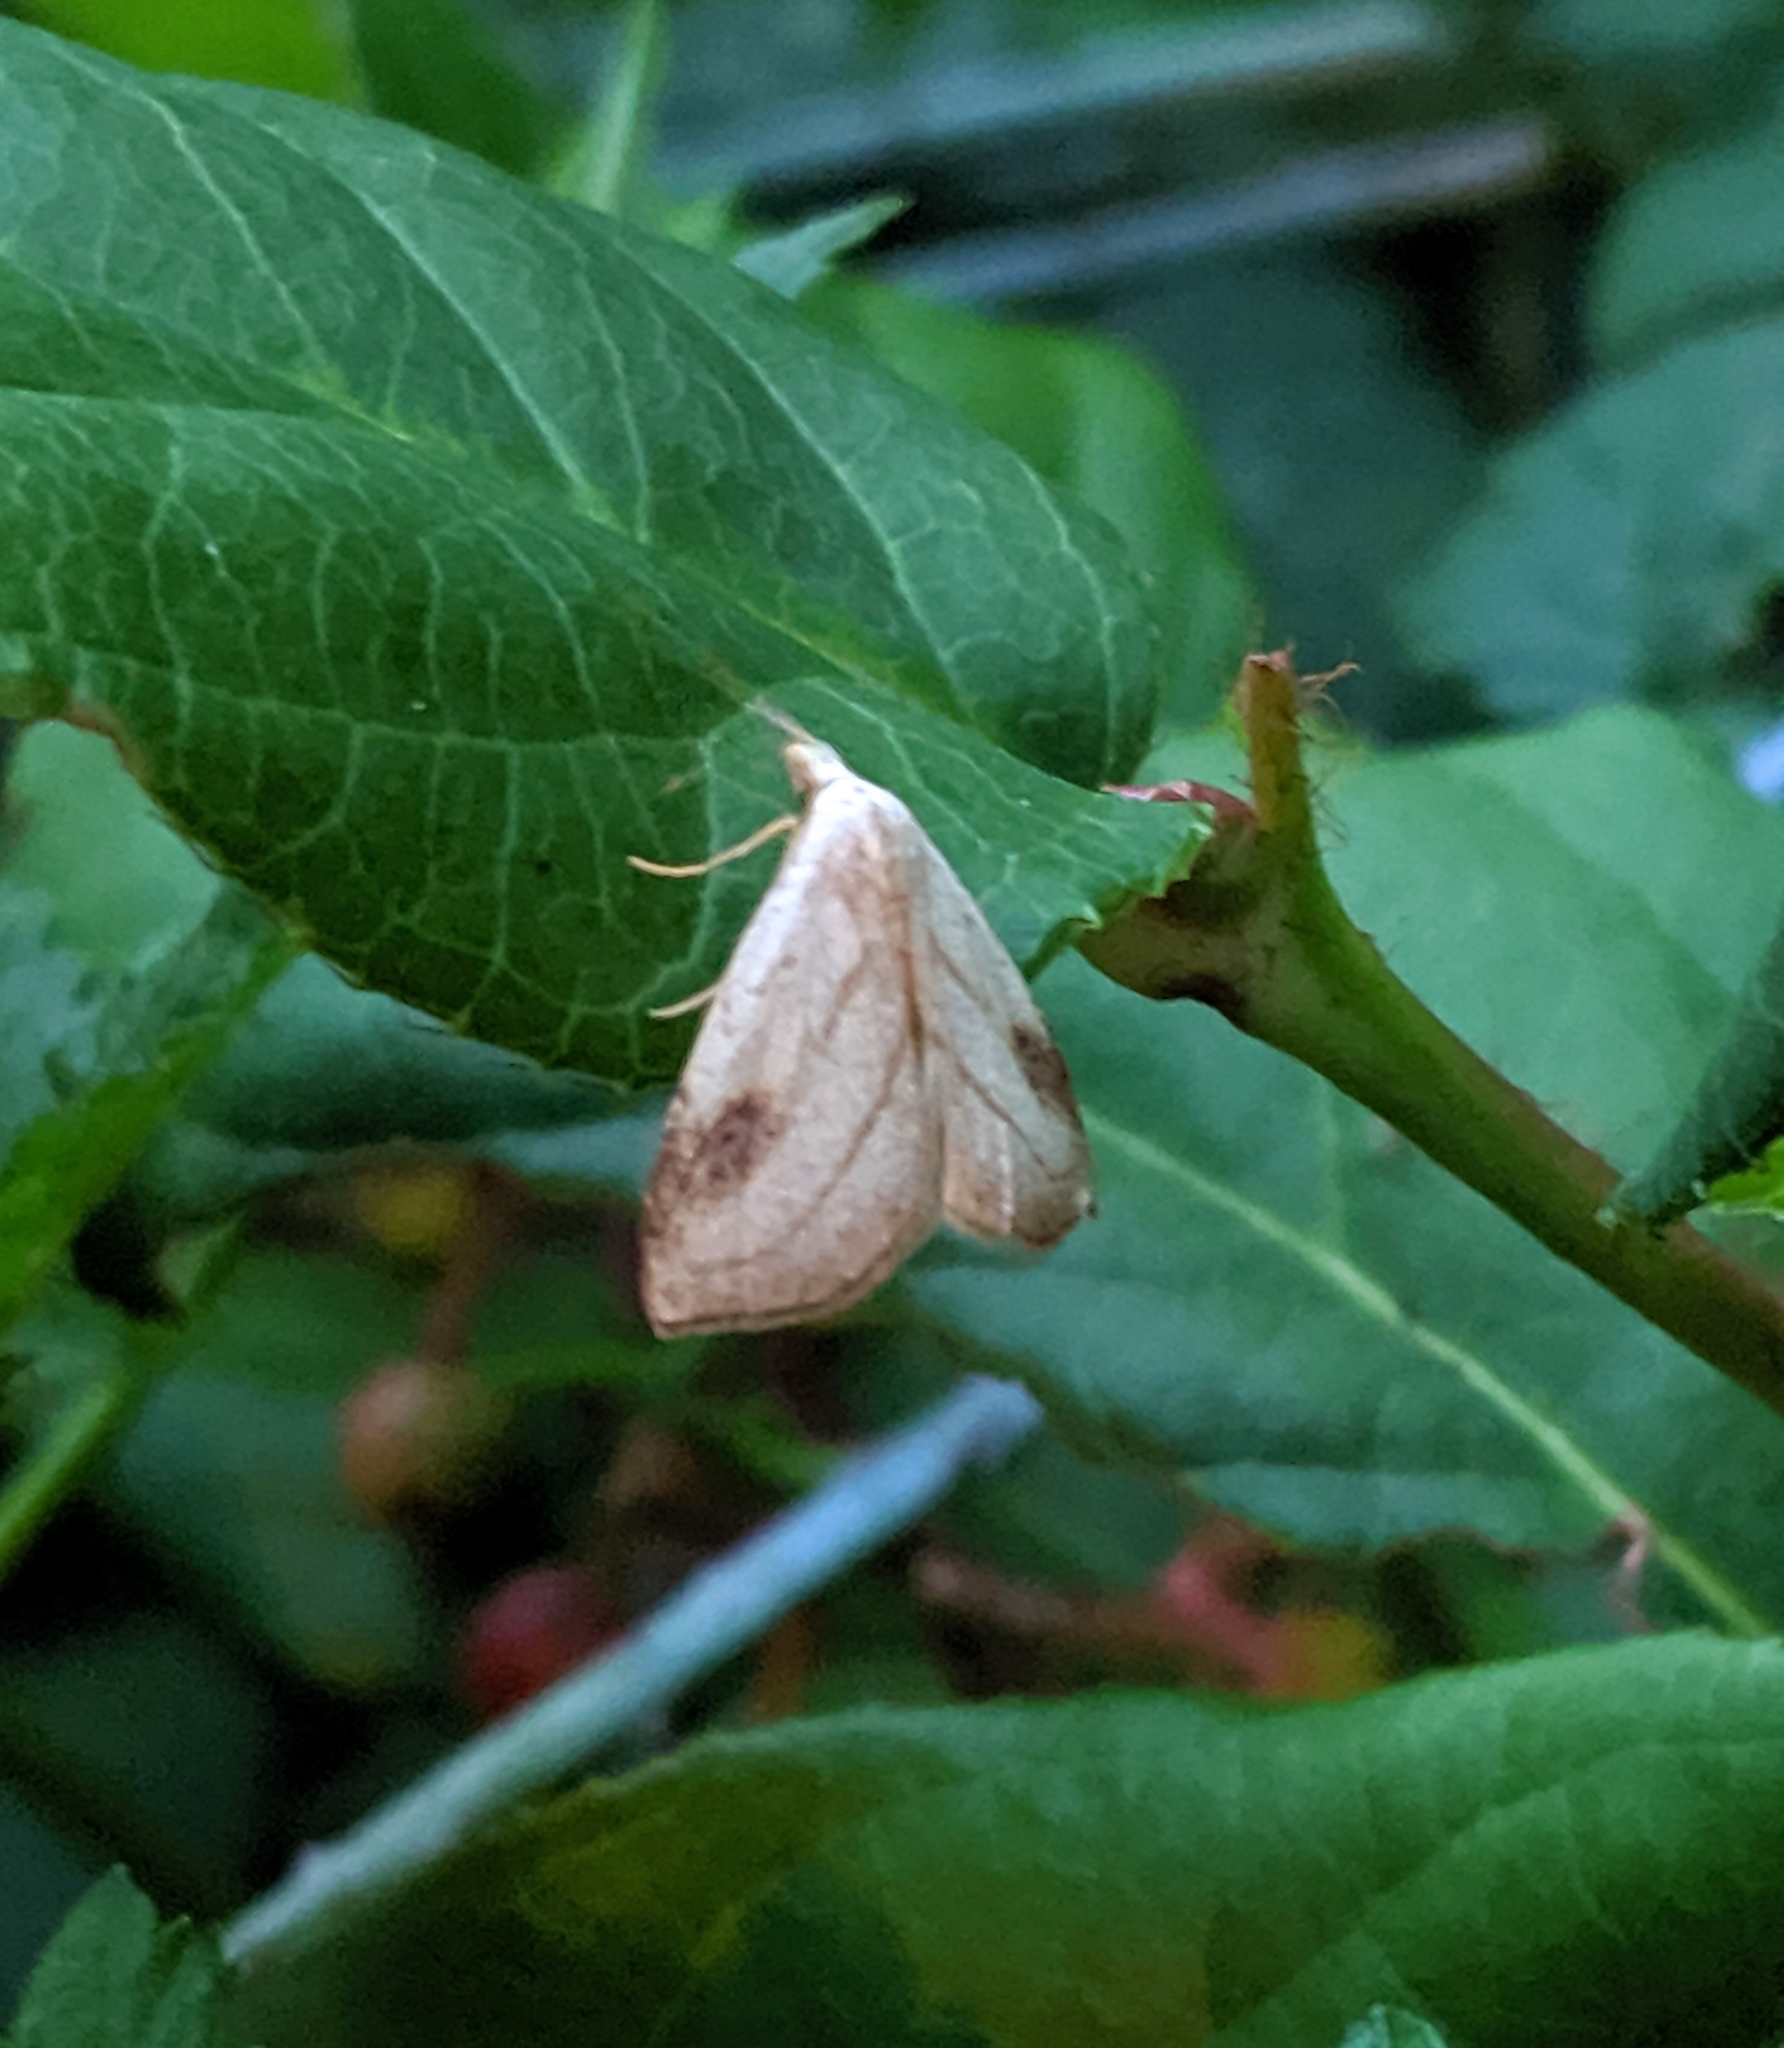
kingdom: Animalia
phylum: Arthropoda
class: Insecta
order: Lepidoptera
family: Erebidae
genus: Rivula
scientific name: Rivula propinqualis
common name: Spotted grass moth
